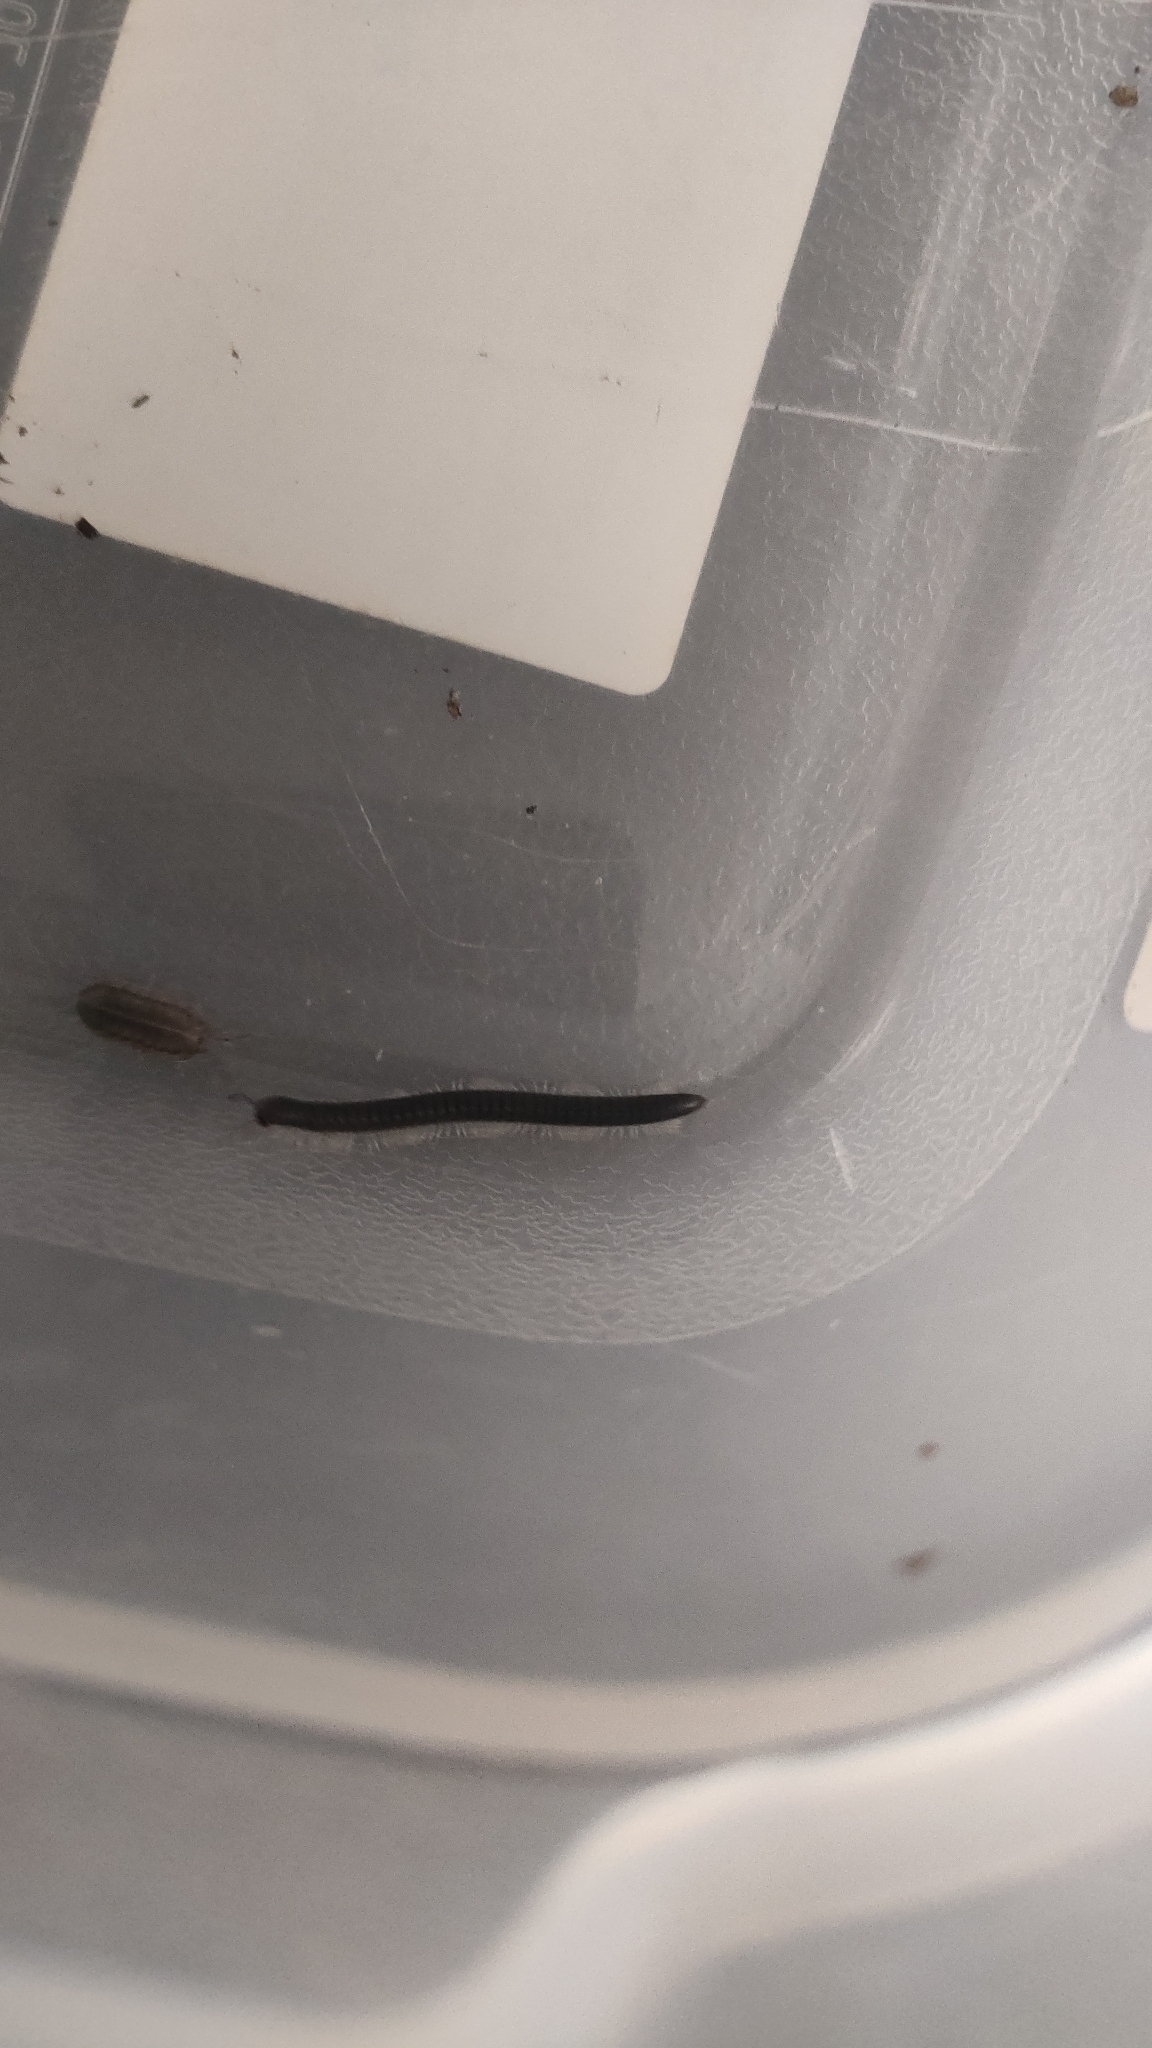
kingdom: Animalia
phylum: Arthropoda
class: Diplopoda
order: Julida
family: Julidae
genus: Tachypodoiulus
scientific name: Tachypodoiulus niger
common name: White-legged snake millipede
